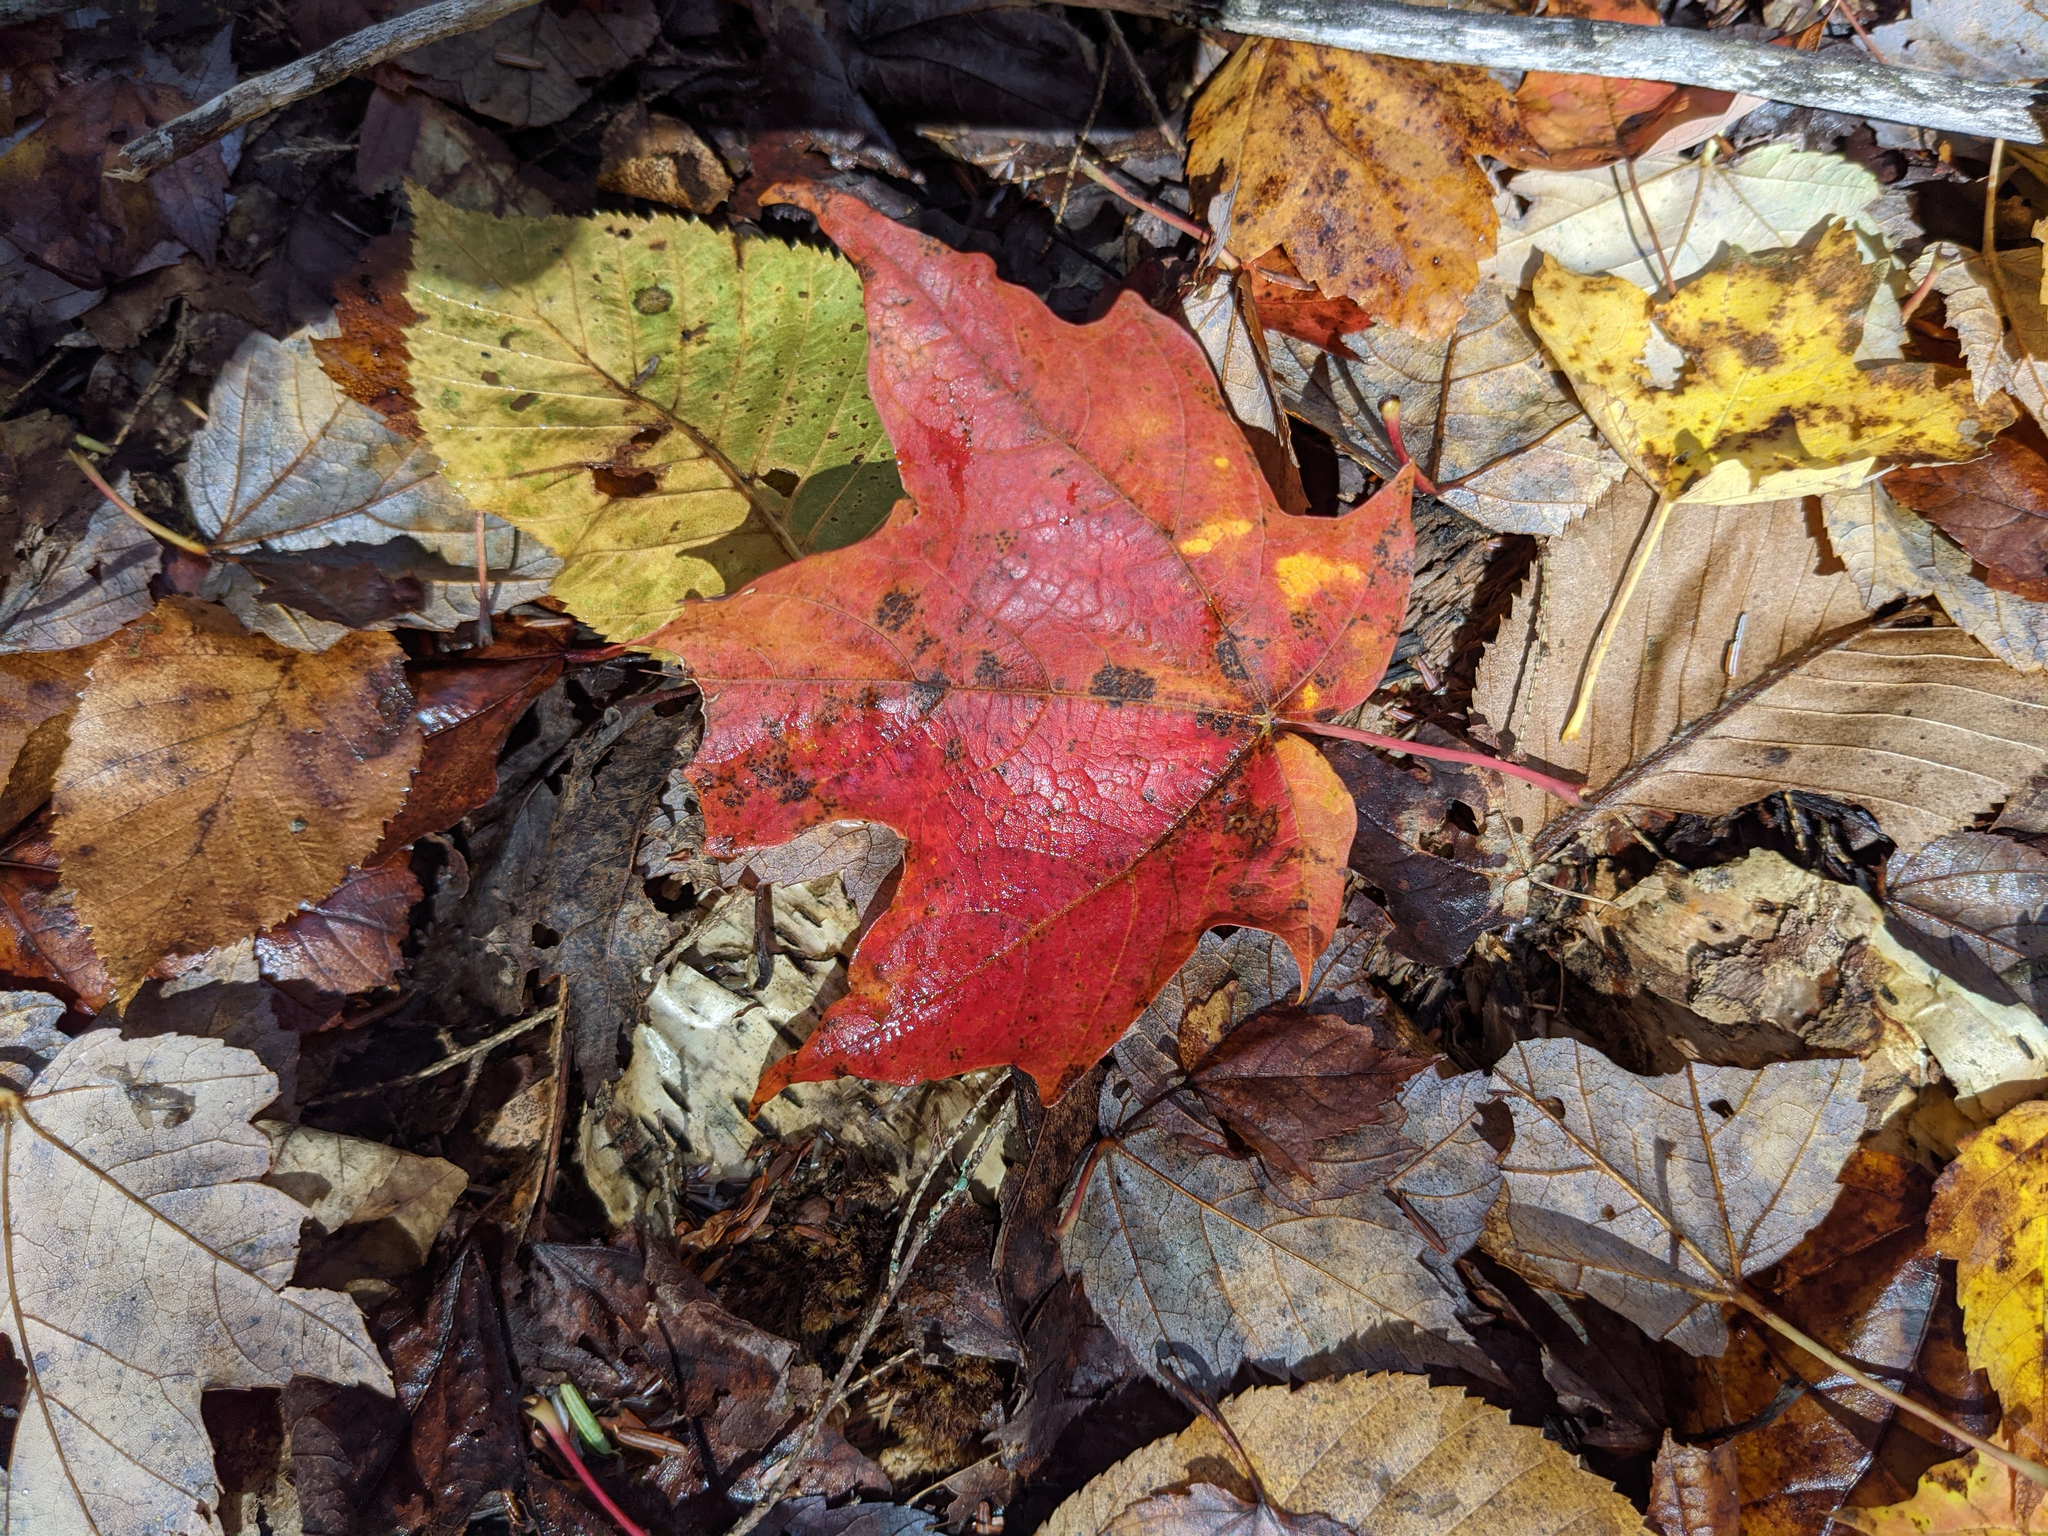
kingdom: Plantae
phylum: Tracheophyta
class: Magnoliopsida
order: Sapindales
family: Sapindaceae
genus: Acer
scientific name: Acer saccharum
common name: Sugar maple
